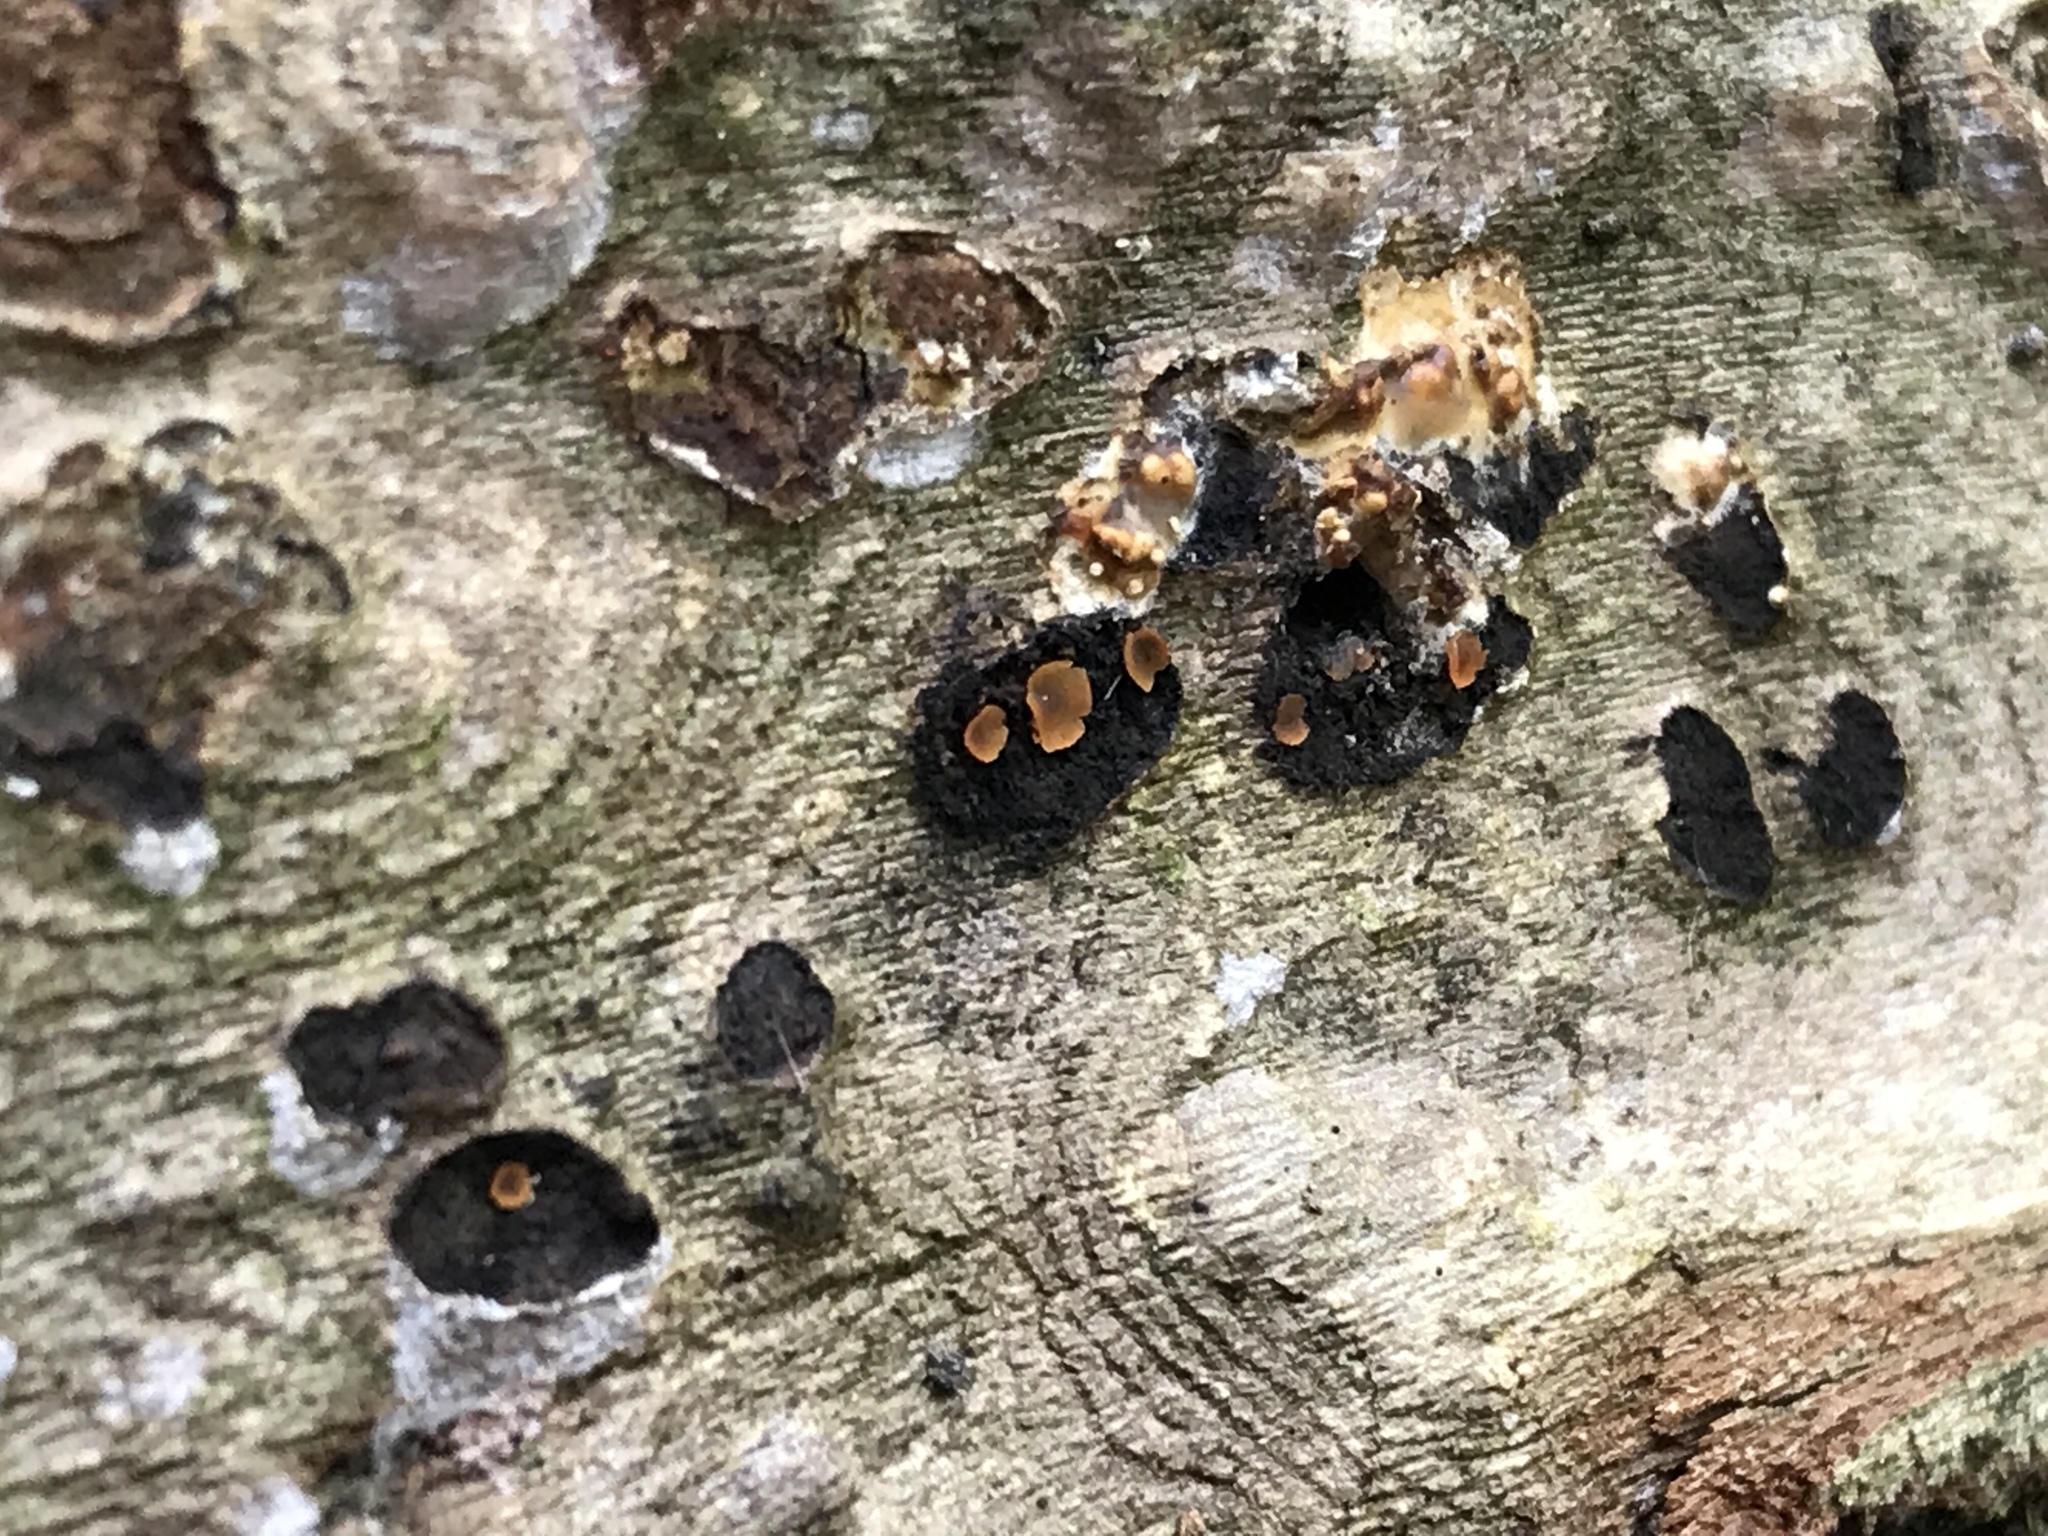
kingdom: Fungi
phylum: Ascomycota
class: Orbiliomycetes
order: Orbiliales
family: Orbiliaceae
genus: Orbilia
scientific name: Orbilia
